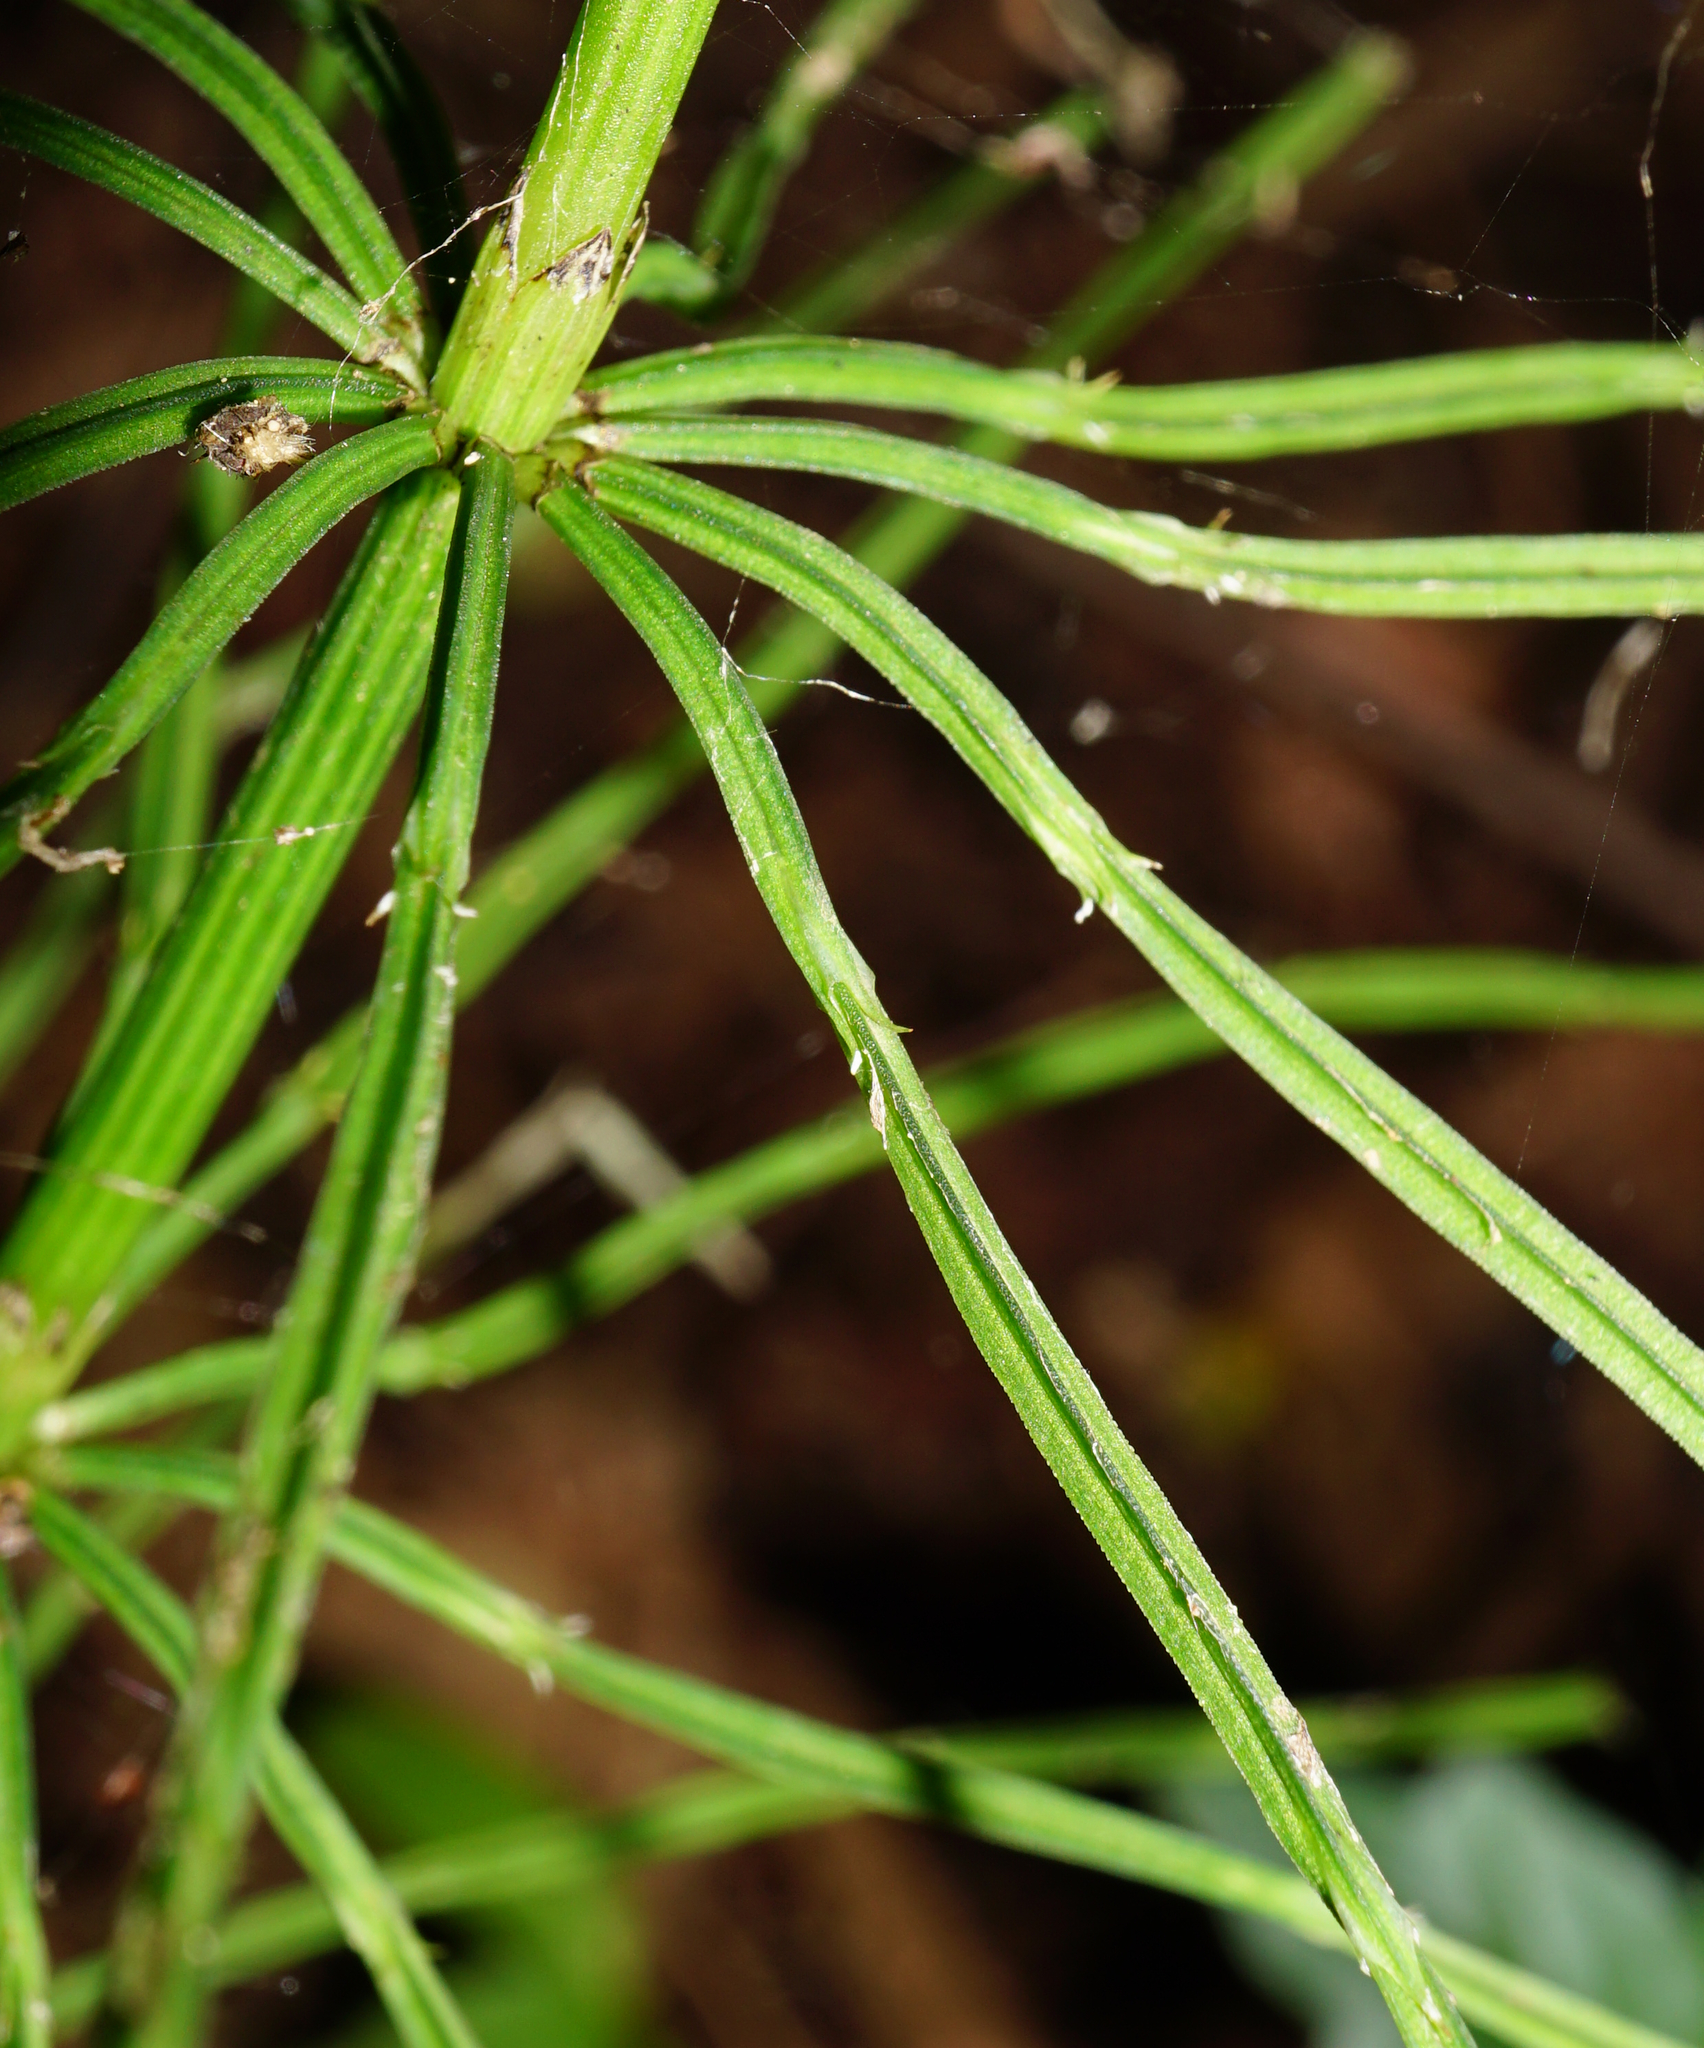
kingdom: Plantae
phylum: Tracheophyta
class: Polypodiopsida
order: Equisetales
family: Equisetaceae
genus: Equisetum
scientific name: Equisetum arvense
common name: Field horsetail
